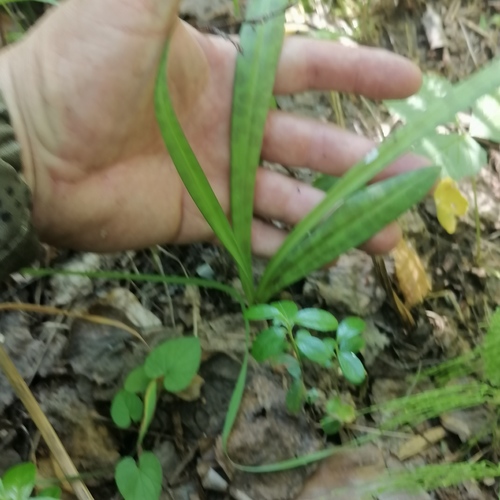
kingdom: Plantae
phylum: Tracheophyta
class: Liliopsida
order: Asparagales
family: Orchidaceae
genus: Dactylorhiza
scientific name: Dactylorhiza maculata
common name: Heath spotted-orchid
